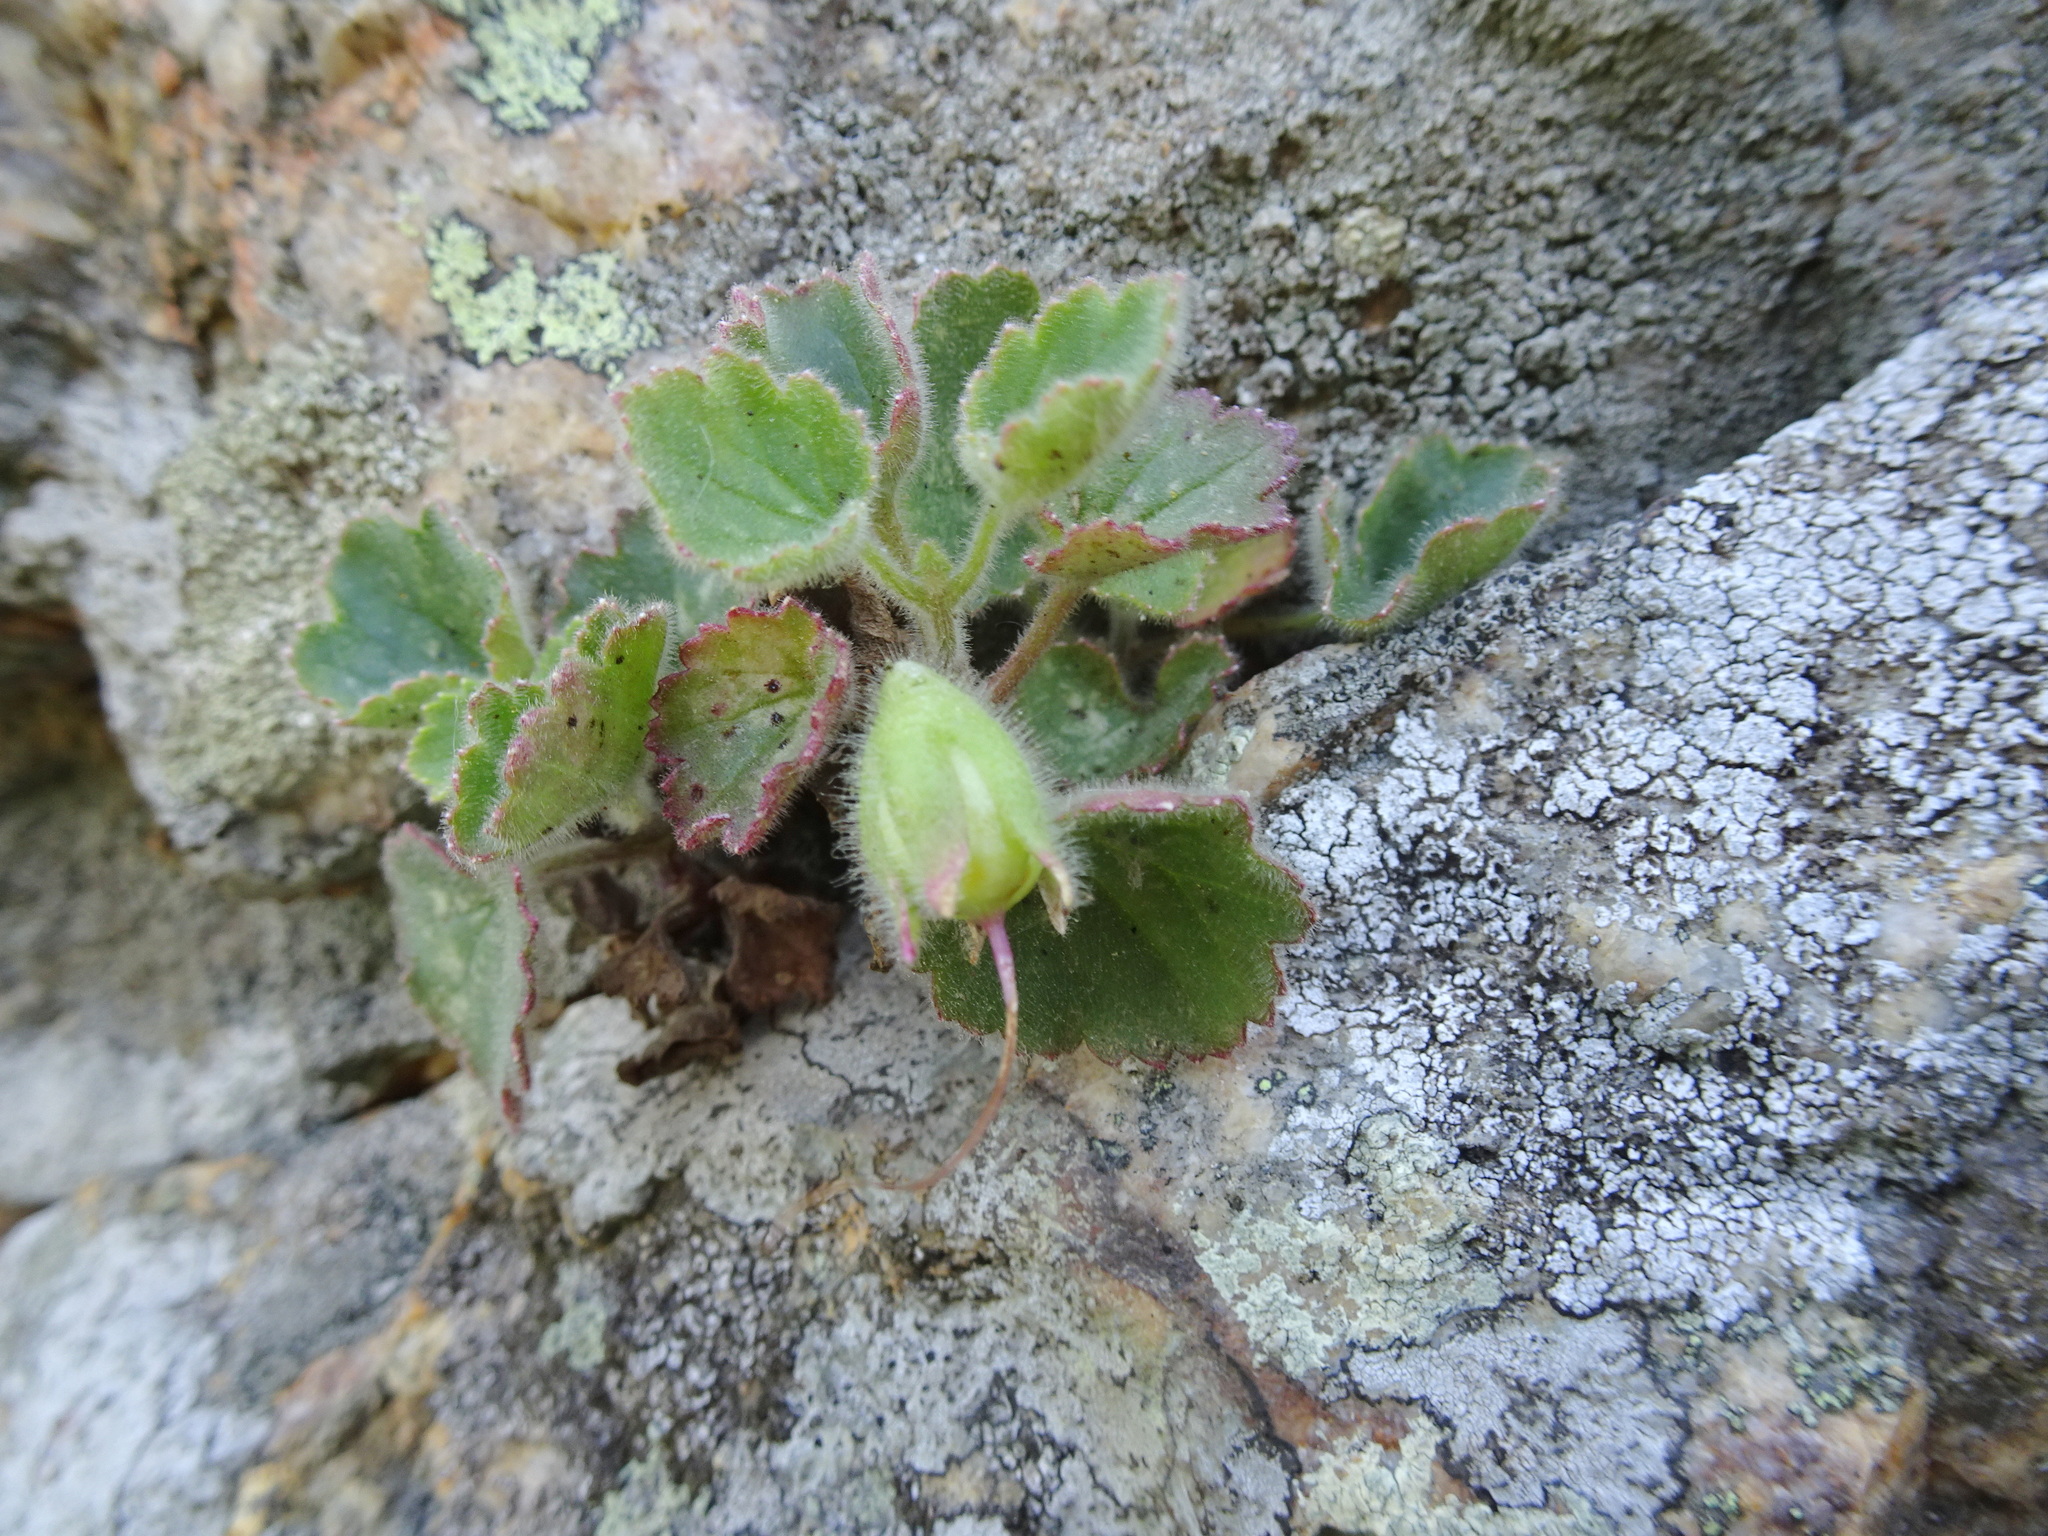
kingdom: Plantae
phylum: Tracheophyta
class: Magnoliopsida
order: Lamiales
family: Plantaginaceae
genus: Asarina
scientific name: Asarina procumbens
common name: Trailing snapdragon
